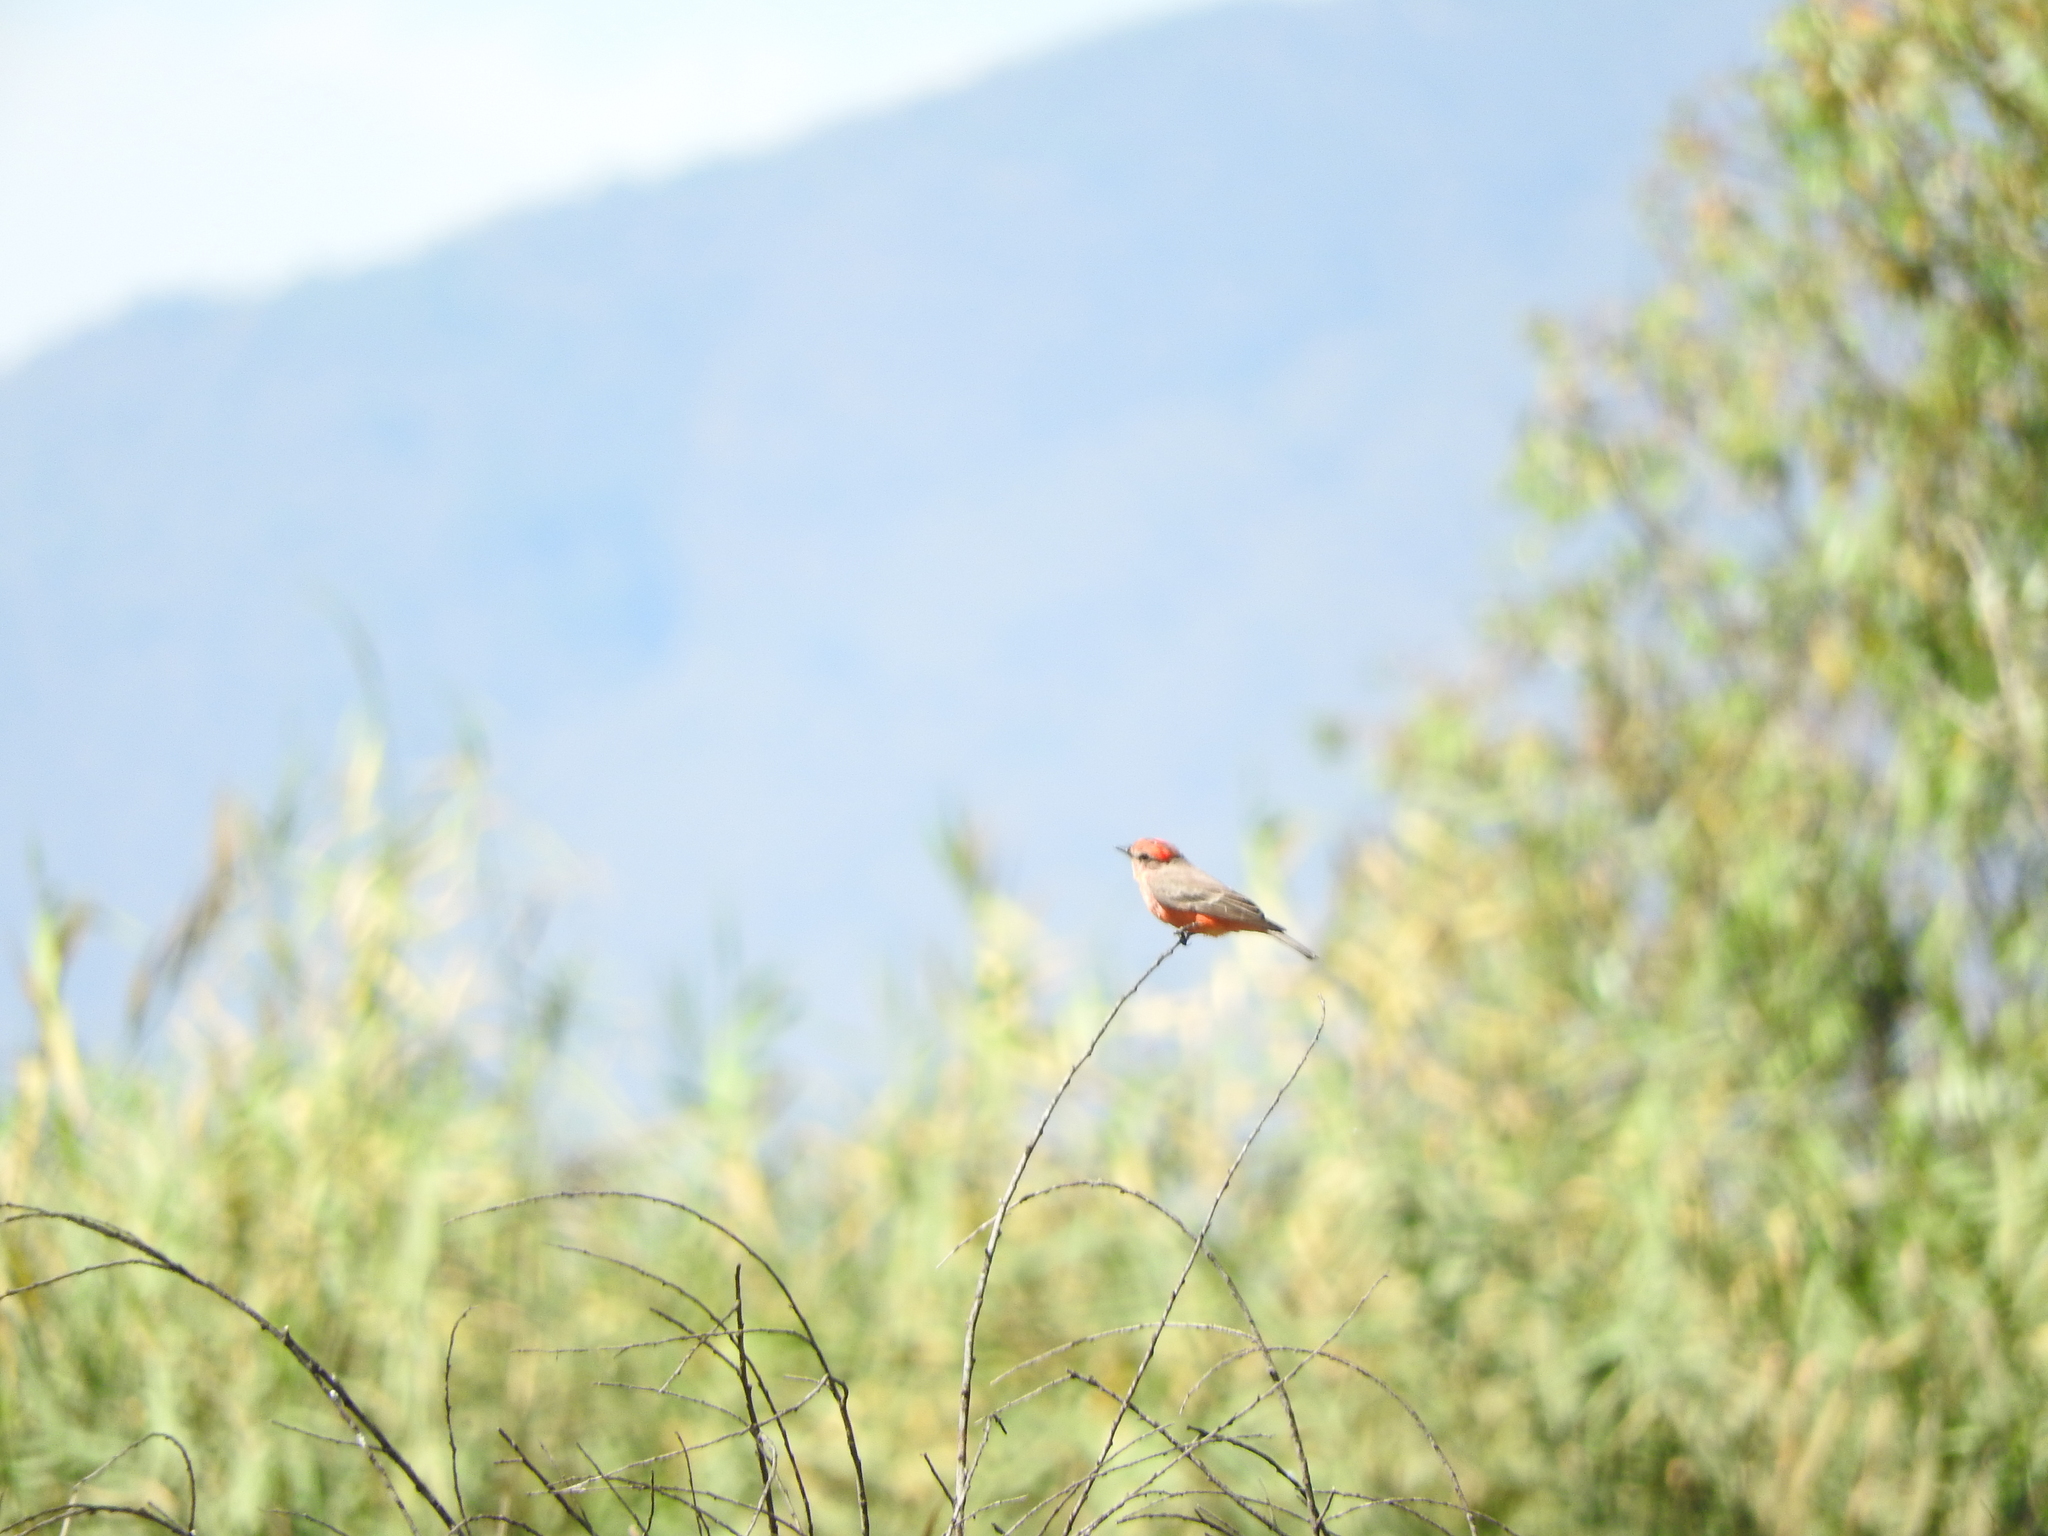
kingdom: Animalia
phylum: Chordata
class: Aves
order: Passeriformes
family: Tyrannidae
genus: Pyrocephalus
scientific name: Pyrocephalus rubinus
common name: Vermilion flycatcher
